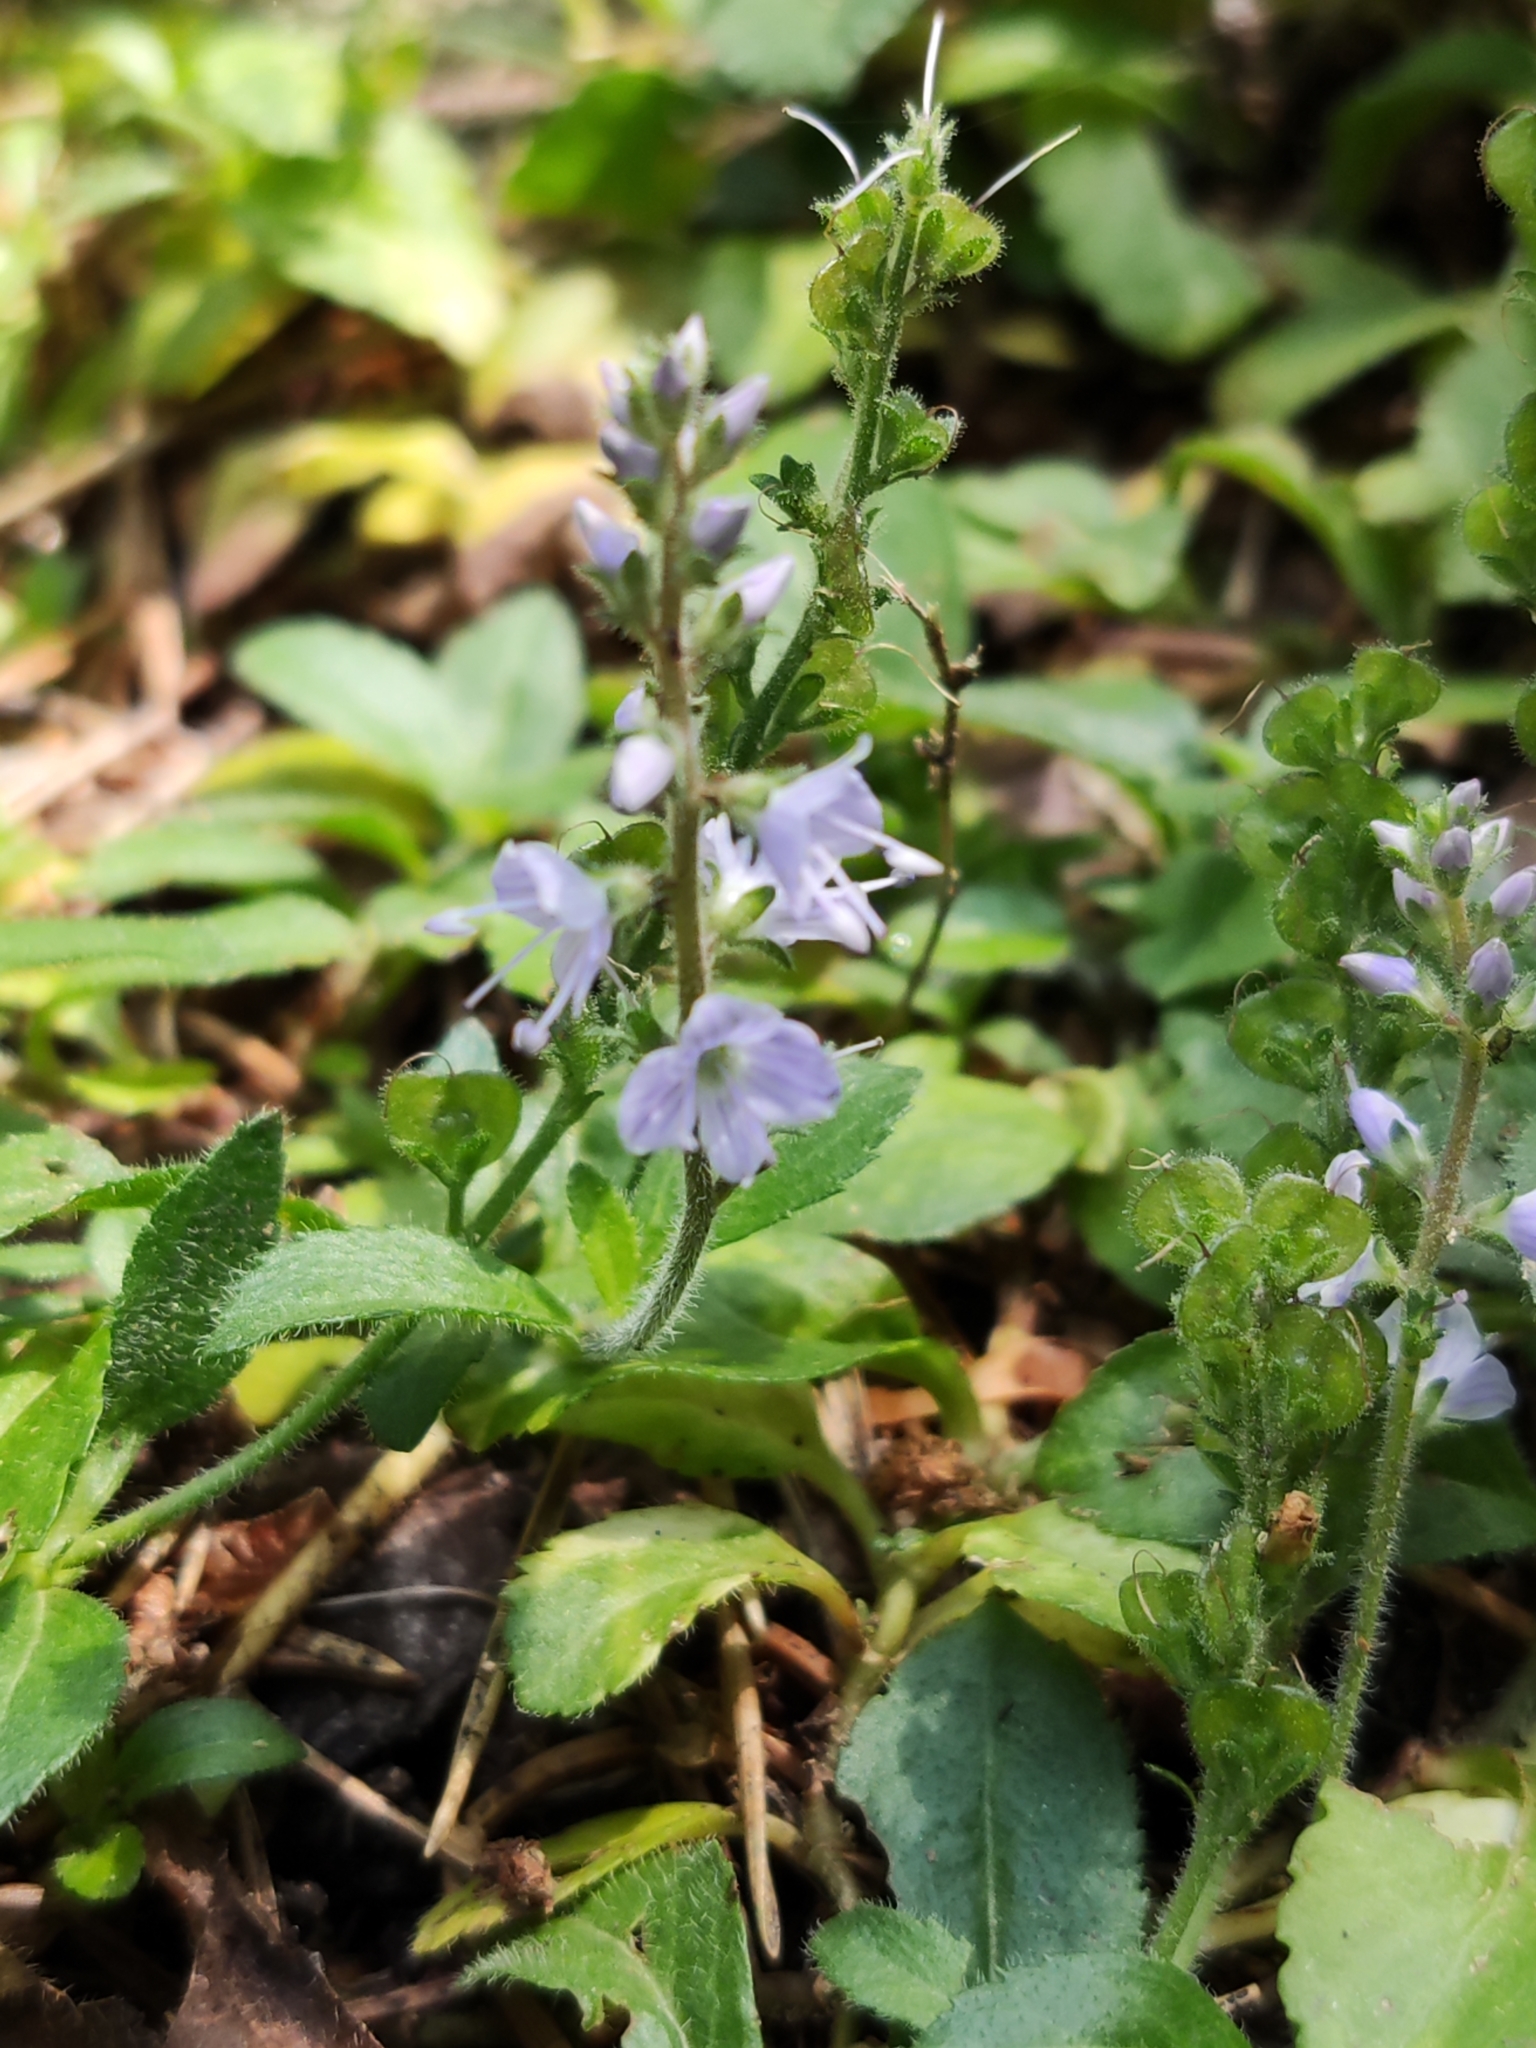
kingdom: Plantae
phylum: Tracheophyta
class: Magnoliopsida
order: Lamiales
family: Plantaginaceae
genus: Veronica
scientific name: Veronica officinalis
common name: Common speedwell
